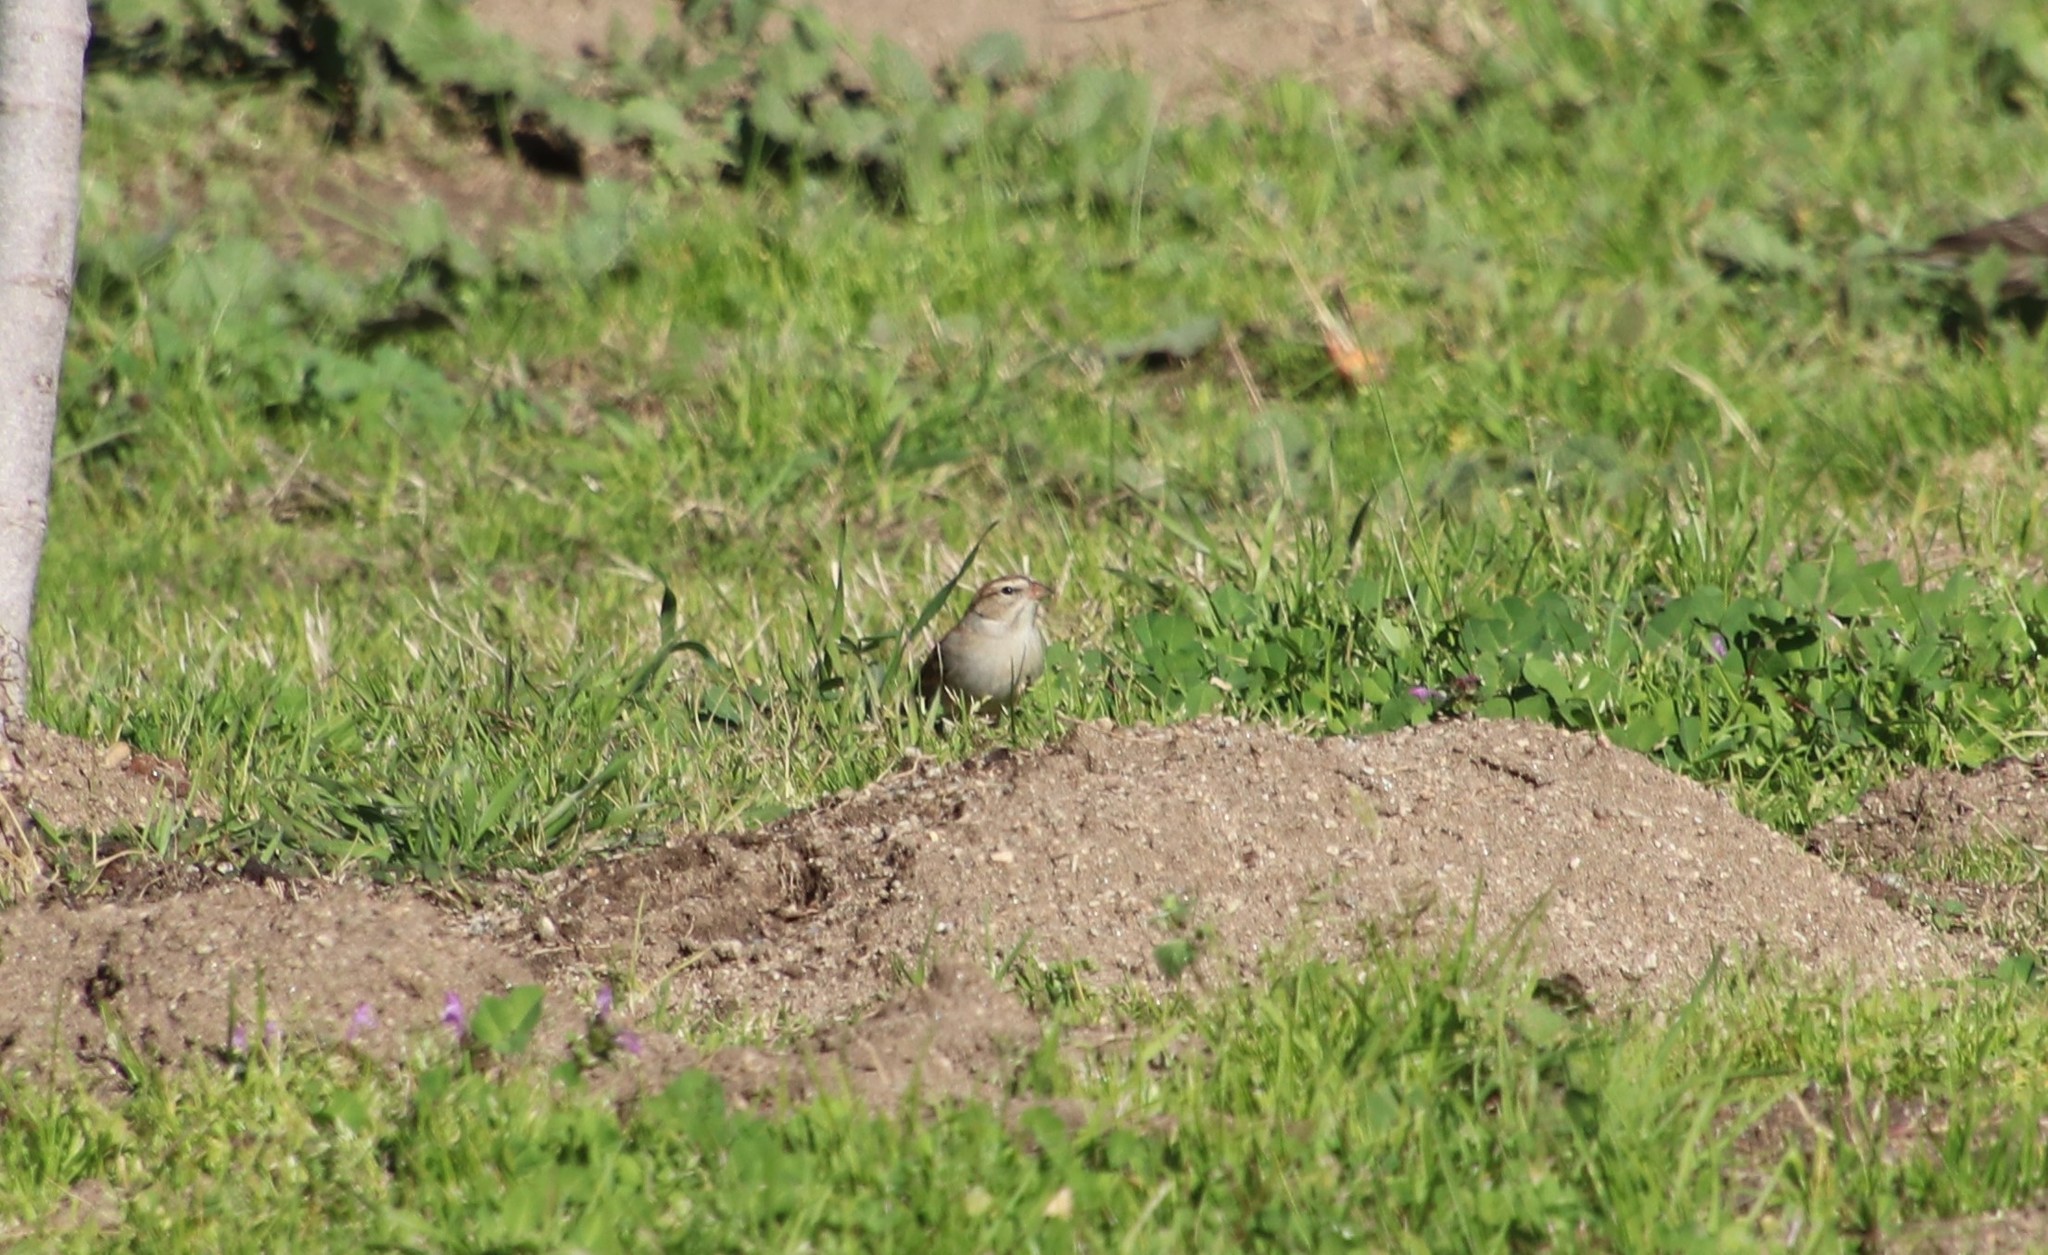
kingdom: Animalia
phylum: Chordata
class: Aves
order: Passeriformes
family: Passerellidae
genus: Spizella
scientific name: Spizella passerina
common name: Chipping sparrow
